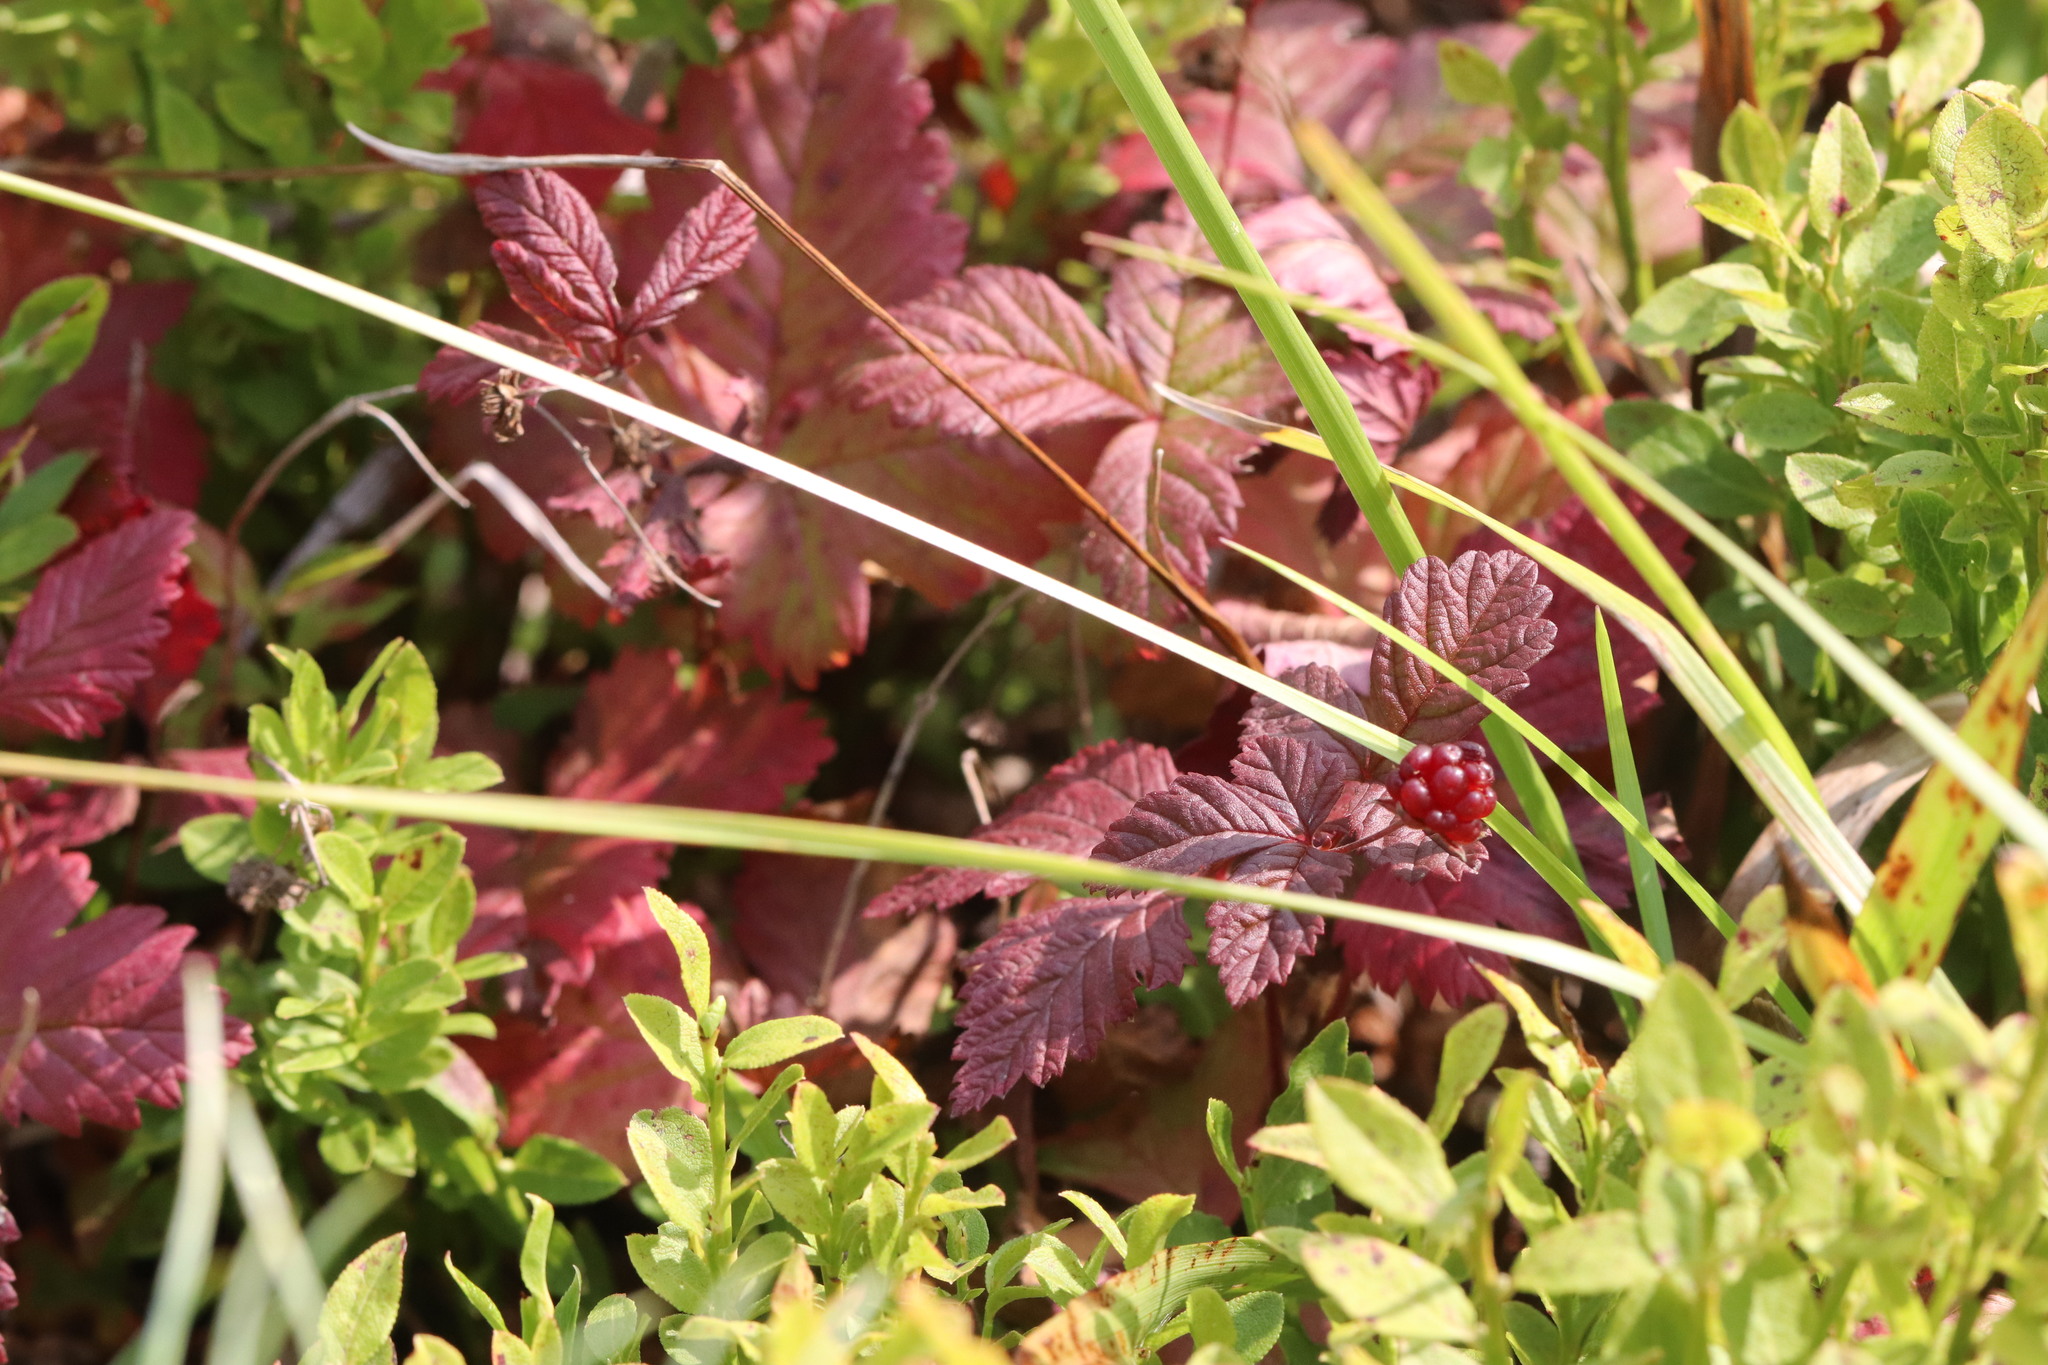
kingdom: Plantae
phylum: Tracheophyta
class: Magnoliopsida
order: Rosales
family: Rosaceae
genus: Rubus
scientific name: Rubus arcticus
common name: Arctic bramble
